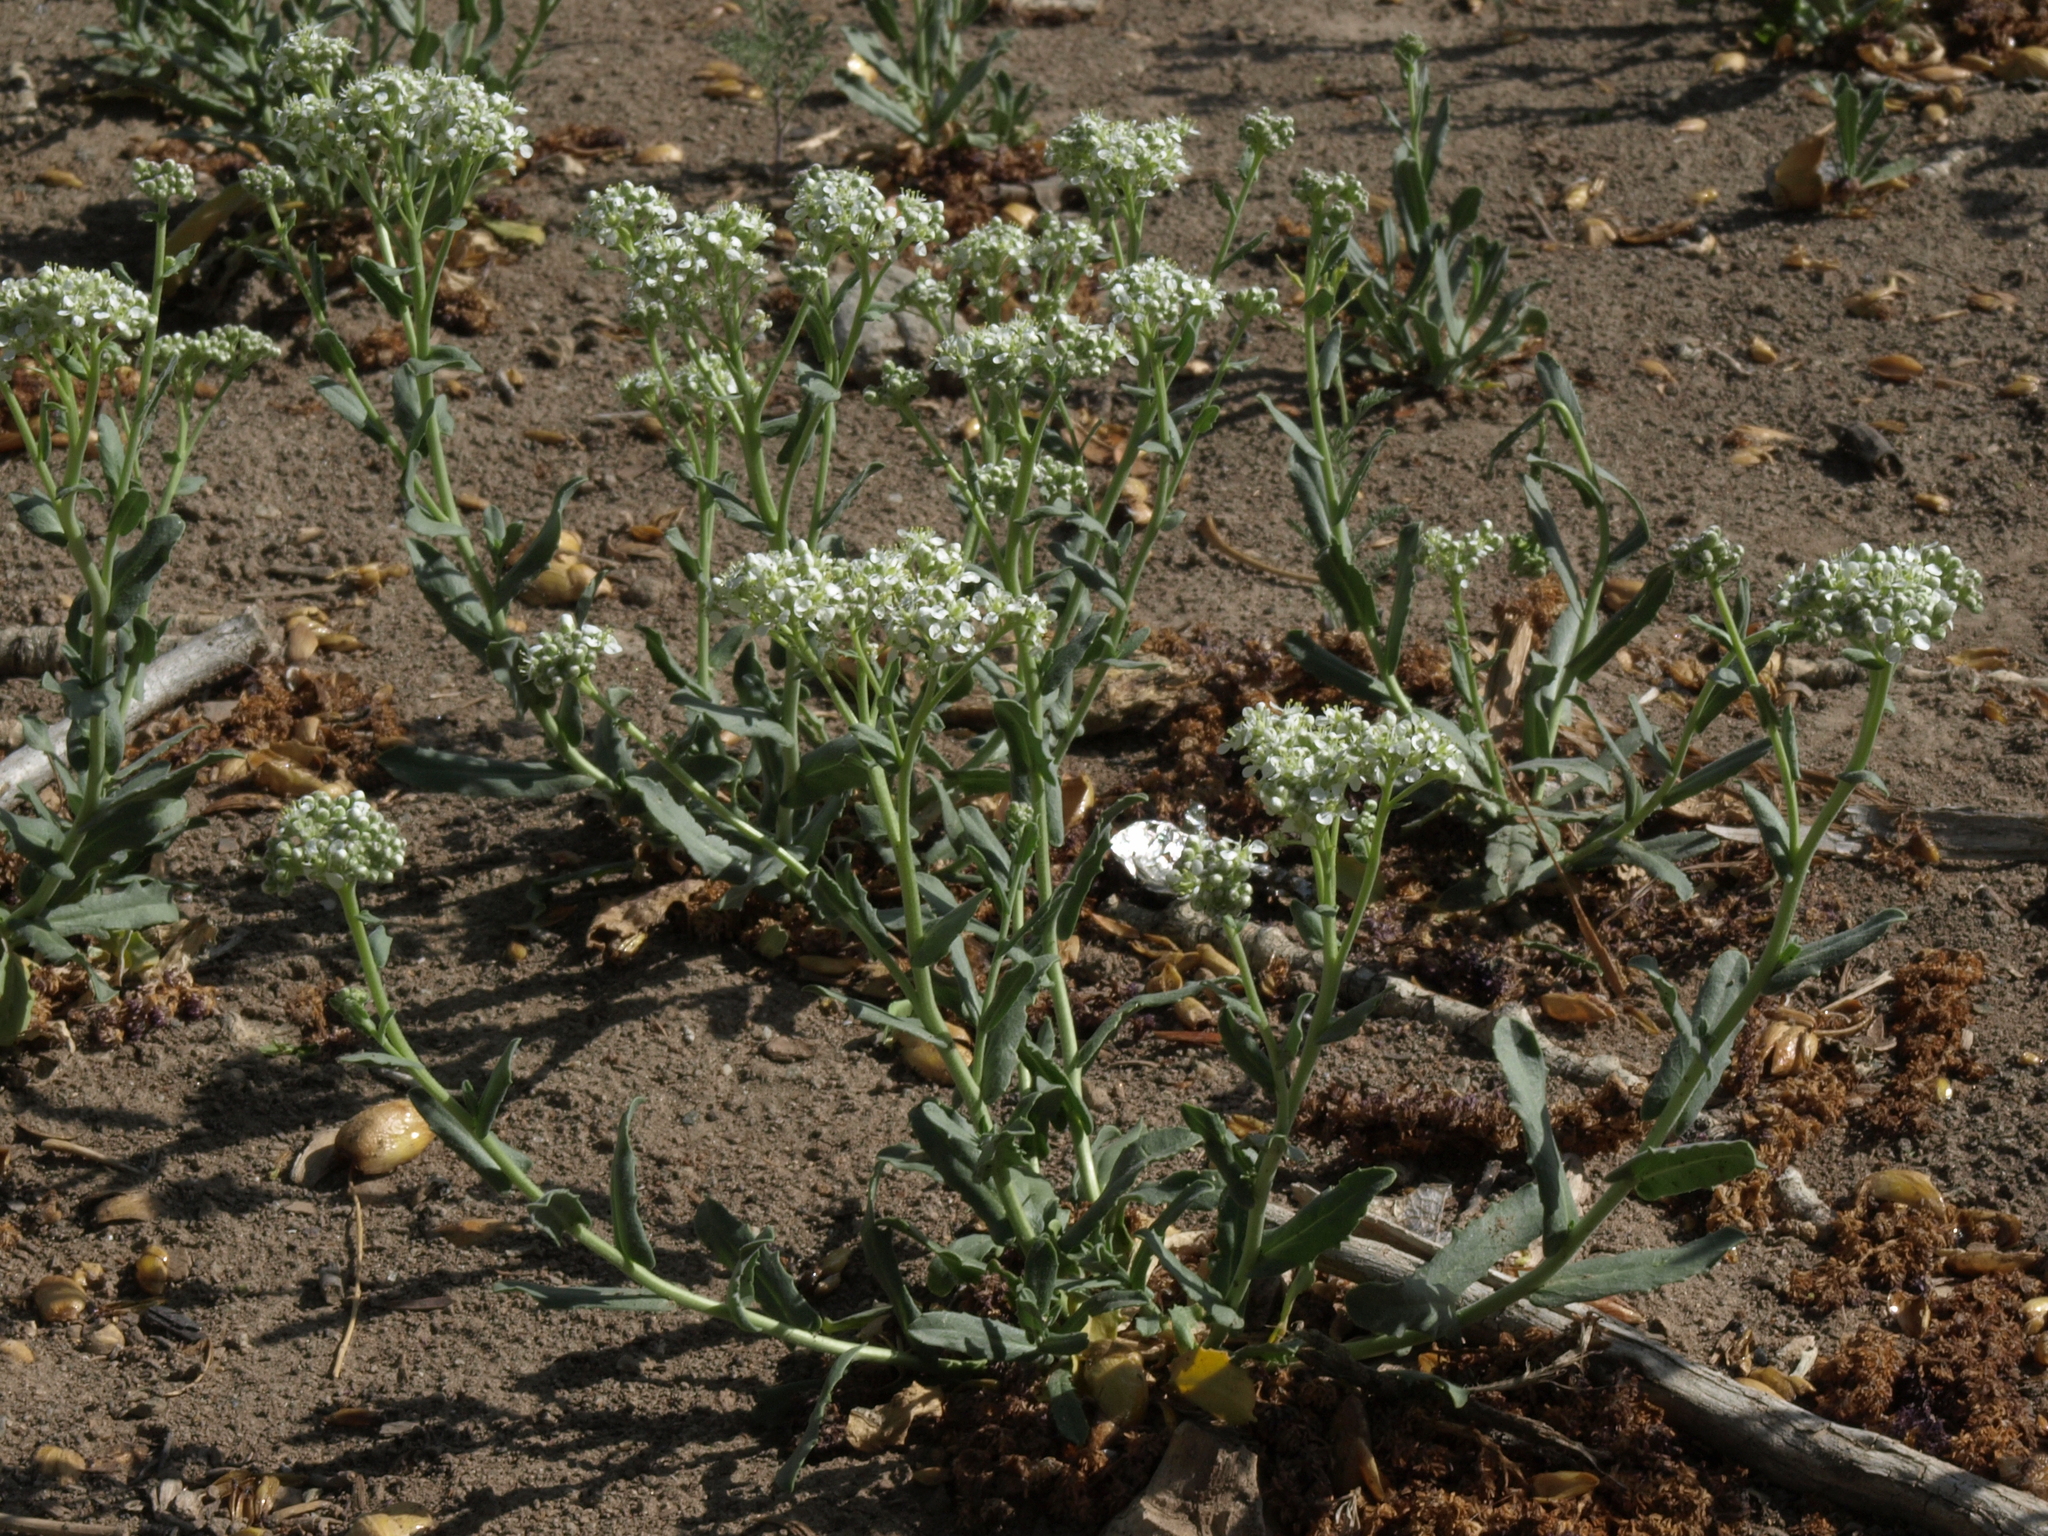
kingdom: Plantae
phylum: Tracheophyta
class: Magnoliopsida
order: Brassicales
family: Brassicaceae
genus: Lepidium
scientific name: Lepidium appelianum
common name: Hairy whitetop
